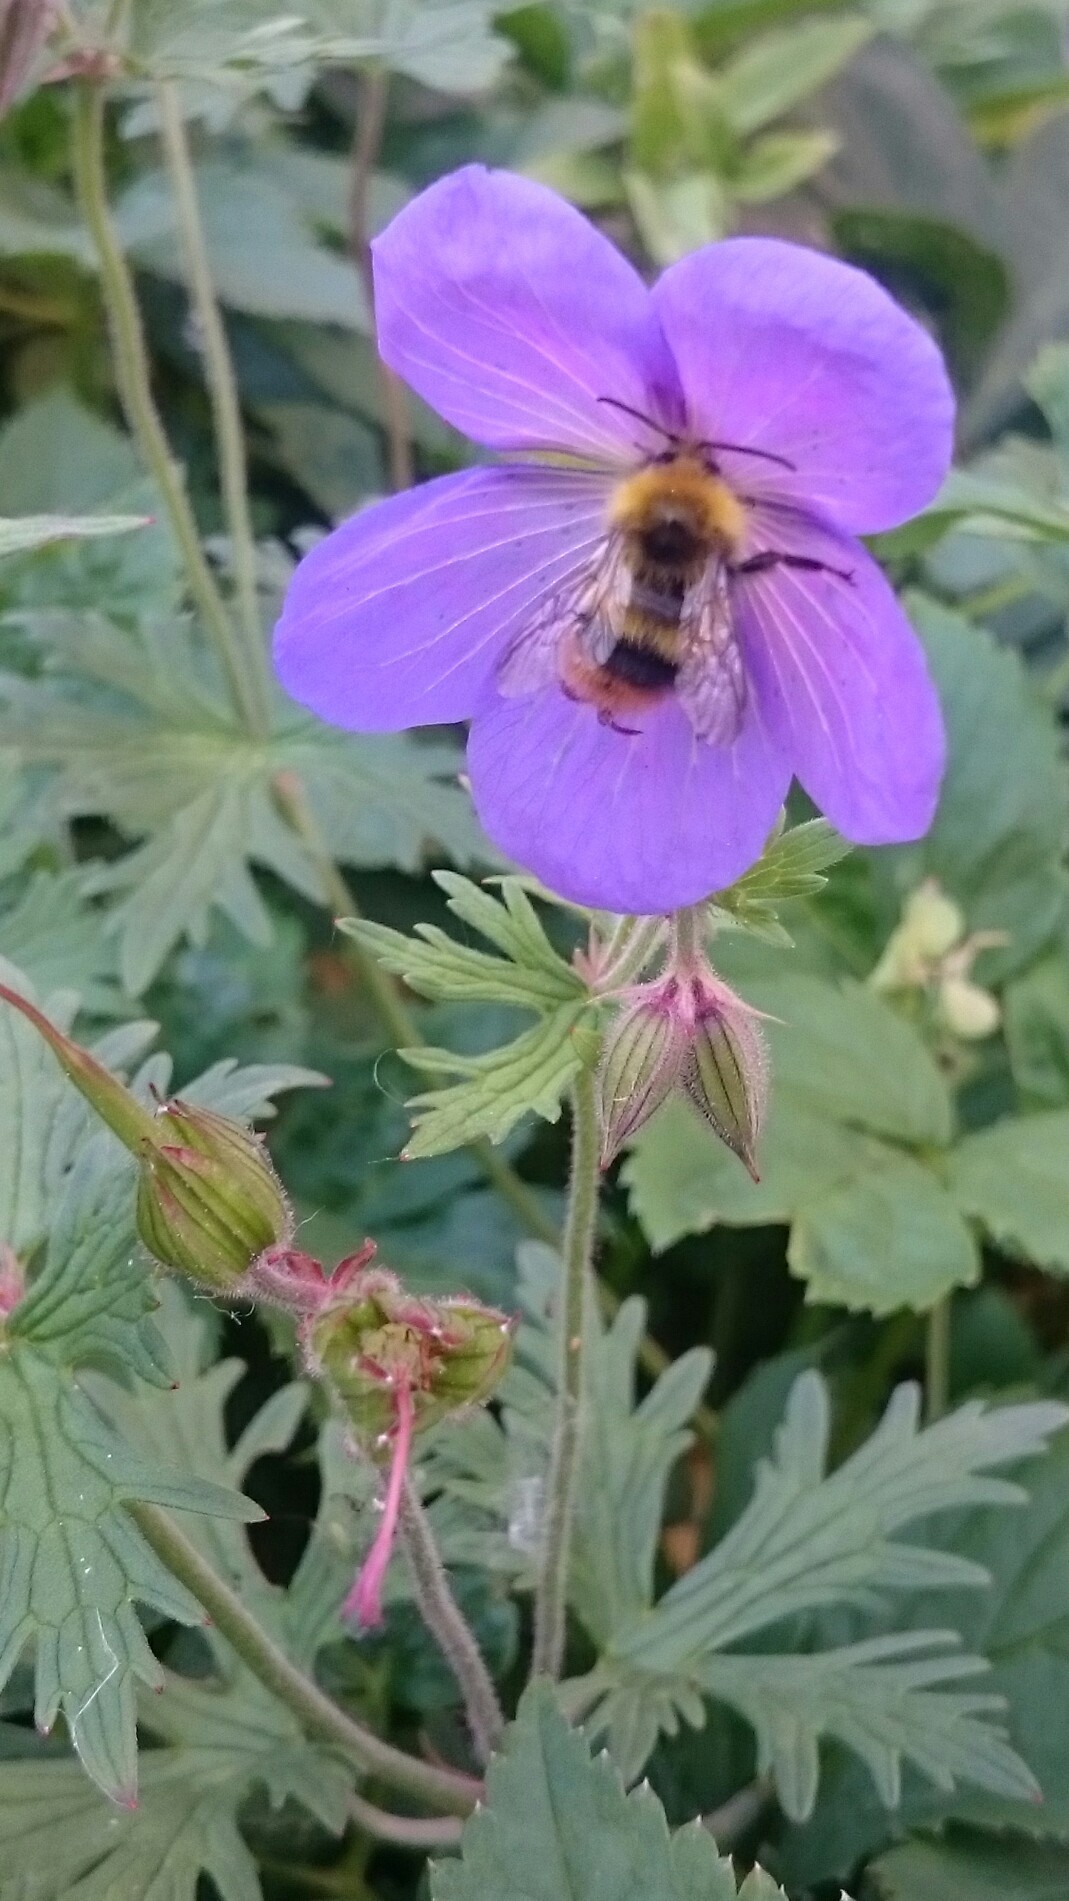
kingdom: Animalia
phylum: Arthropoda
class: Insecta
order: Hymenoptera
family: Apidae
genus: Bombus
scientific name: Bombus pratorum
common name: Early humble-bee
